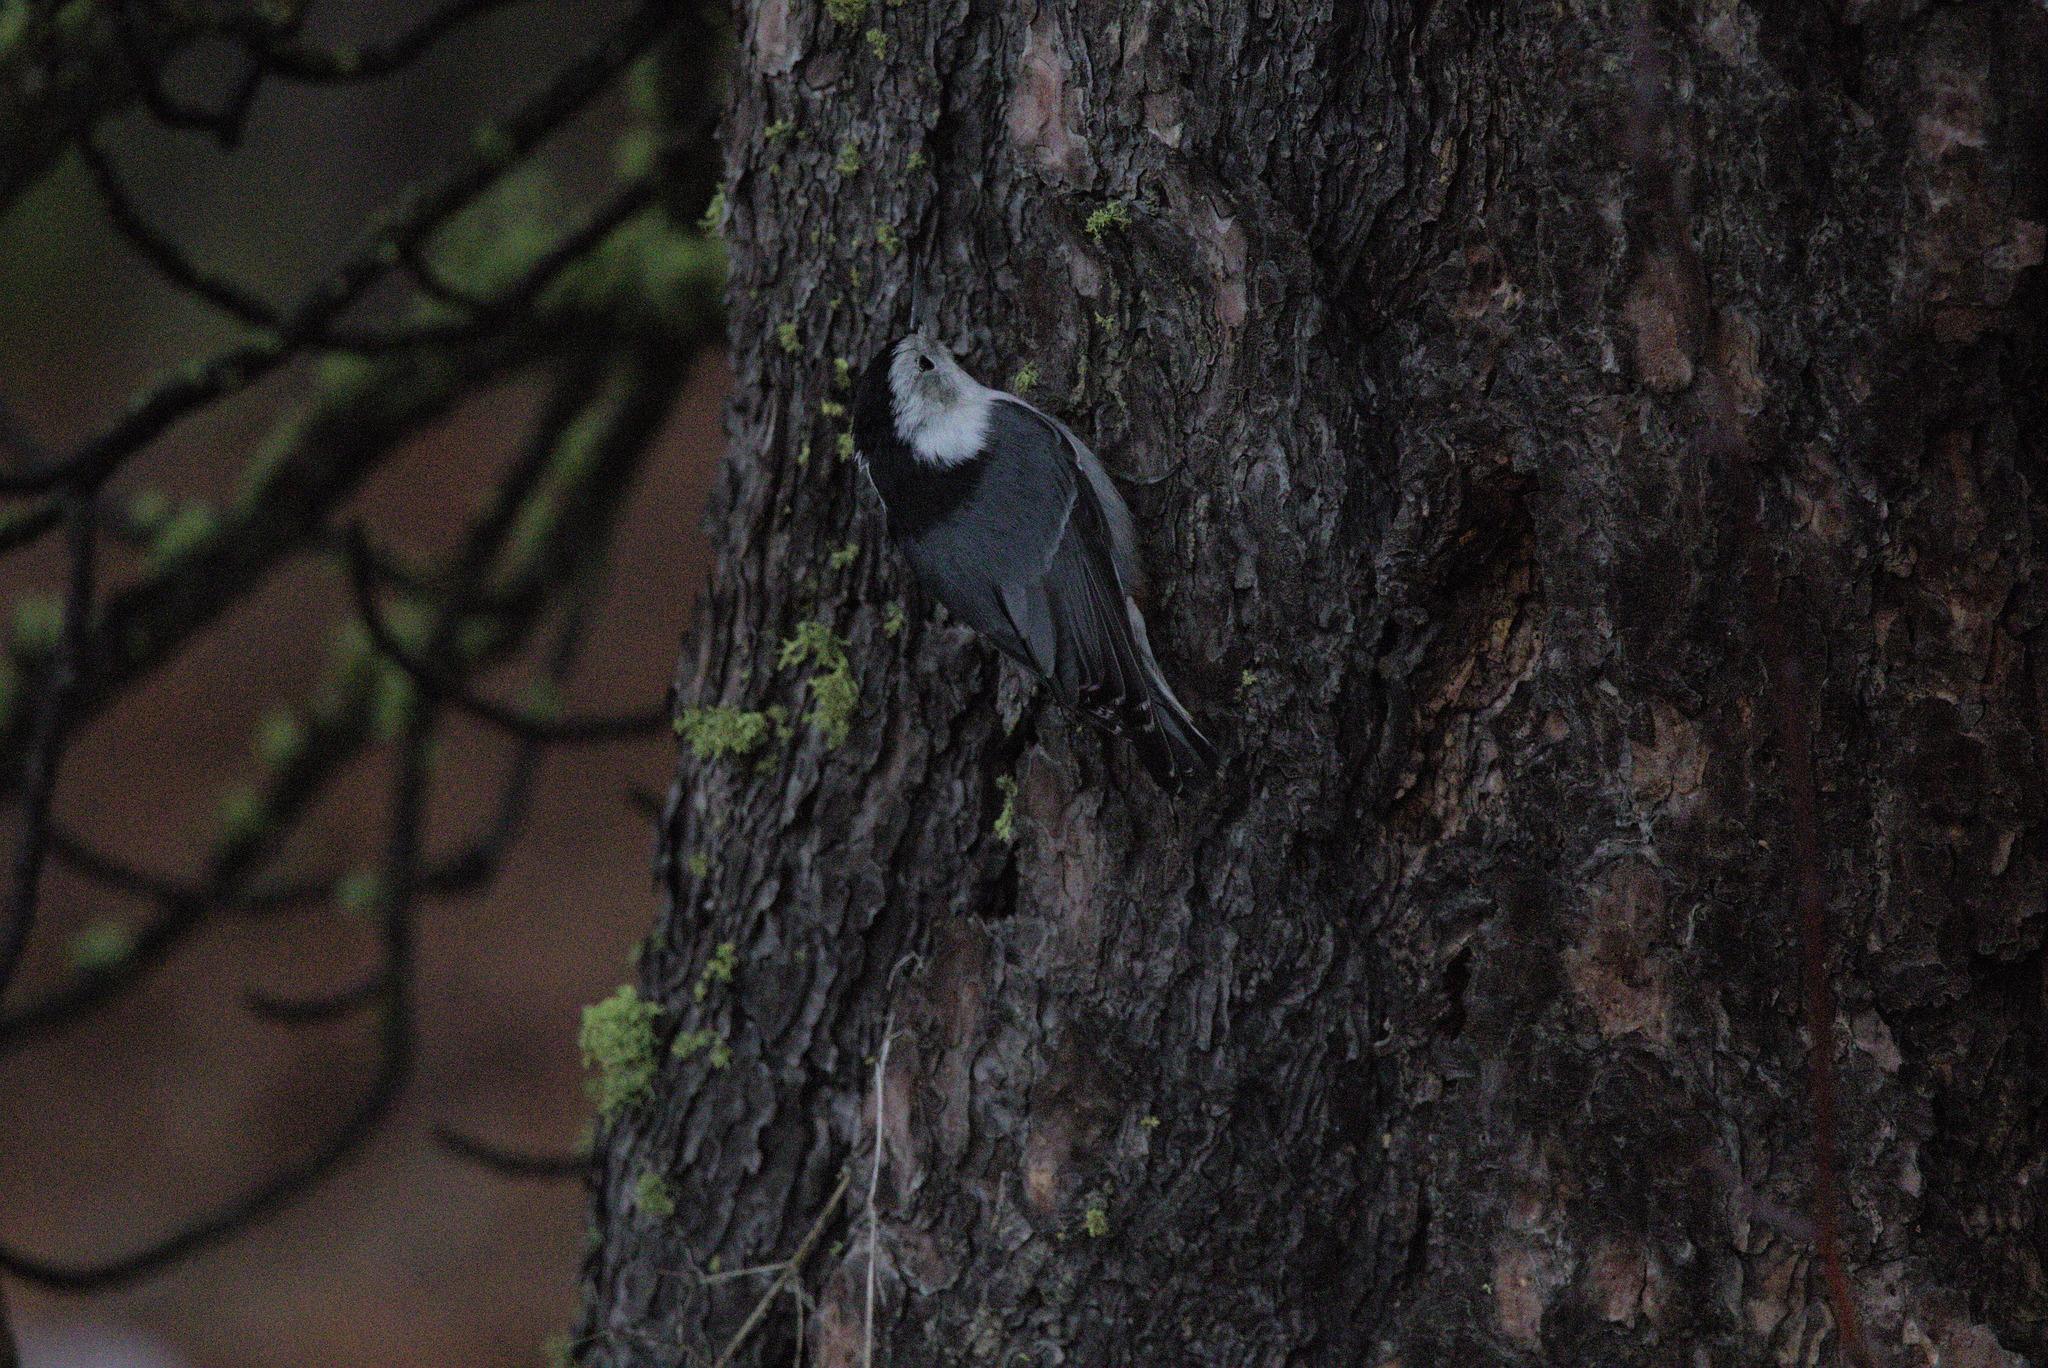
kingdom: Animalia
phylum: Chordata
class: Aves
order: Passeriformes
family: Sittidae
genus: Sitta
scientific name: Sitta carolinensis
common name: White-breasted nuthatch
